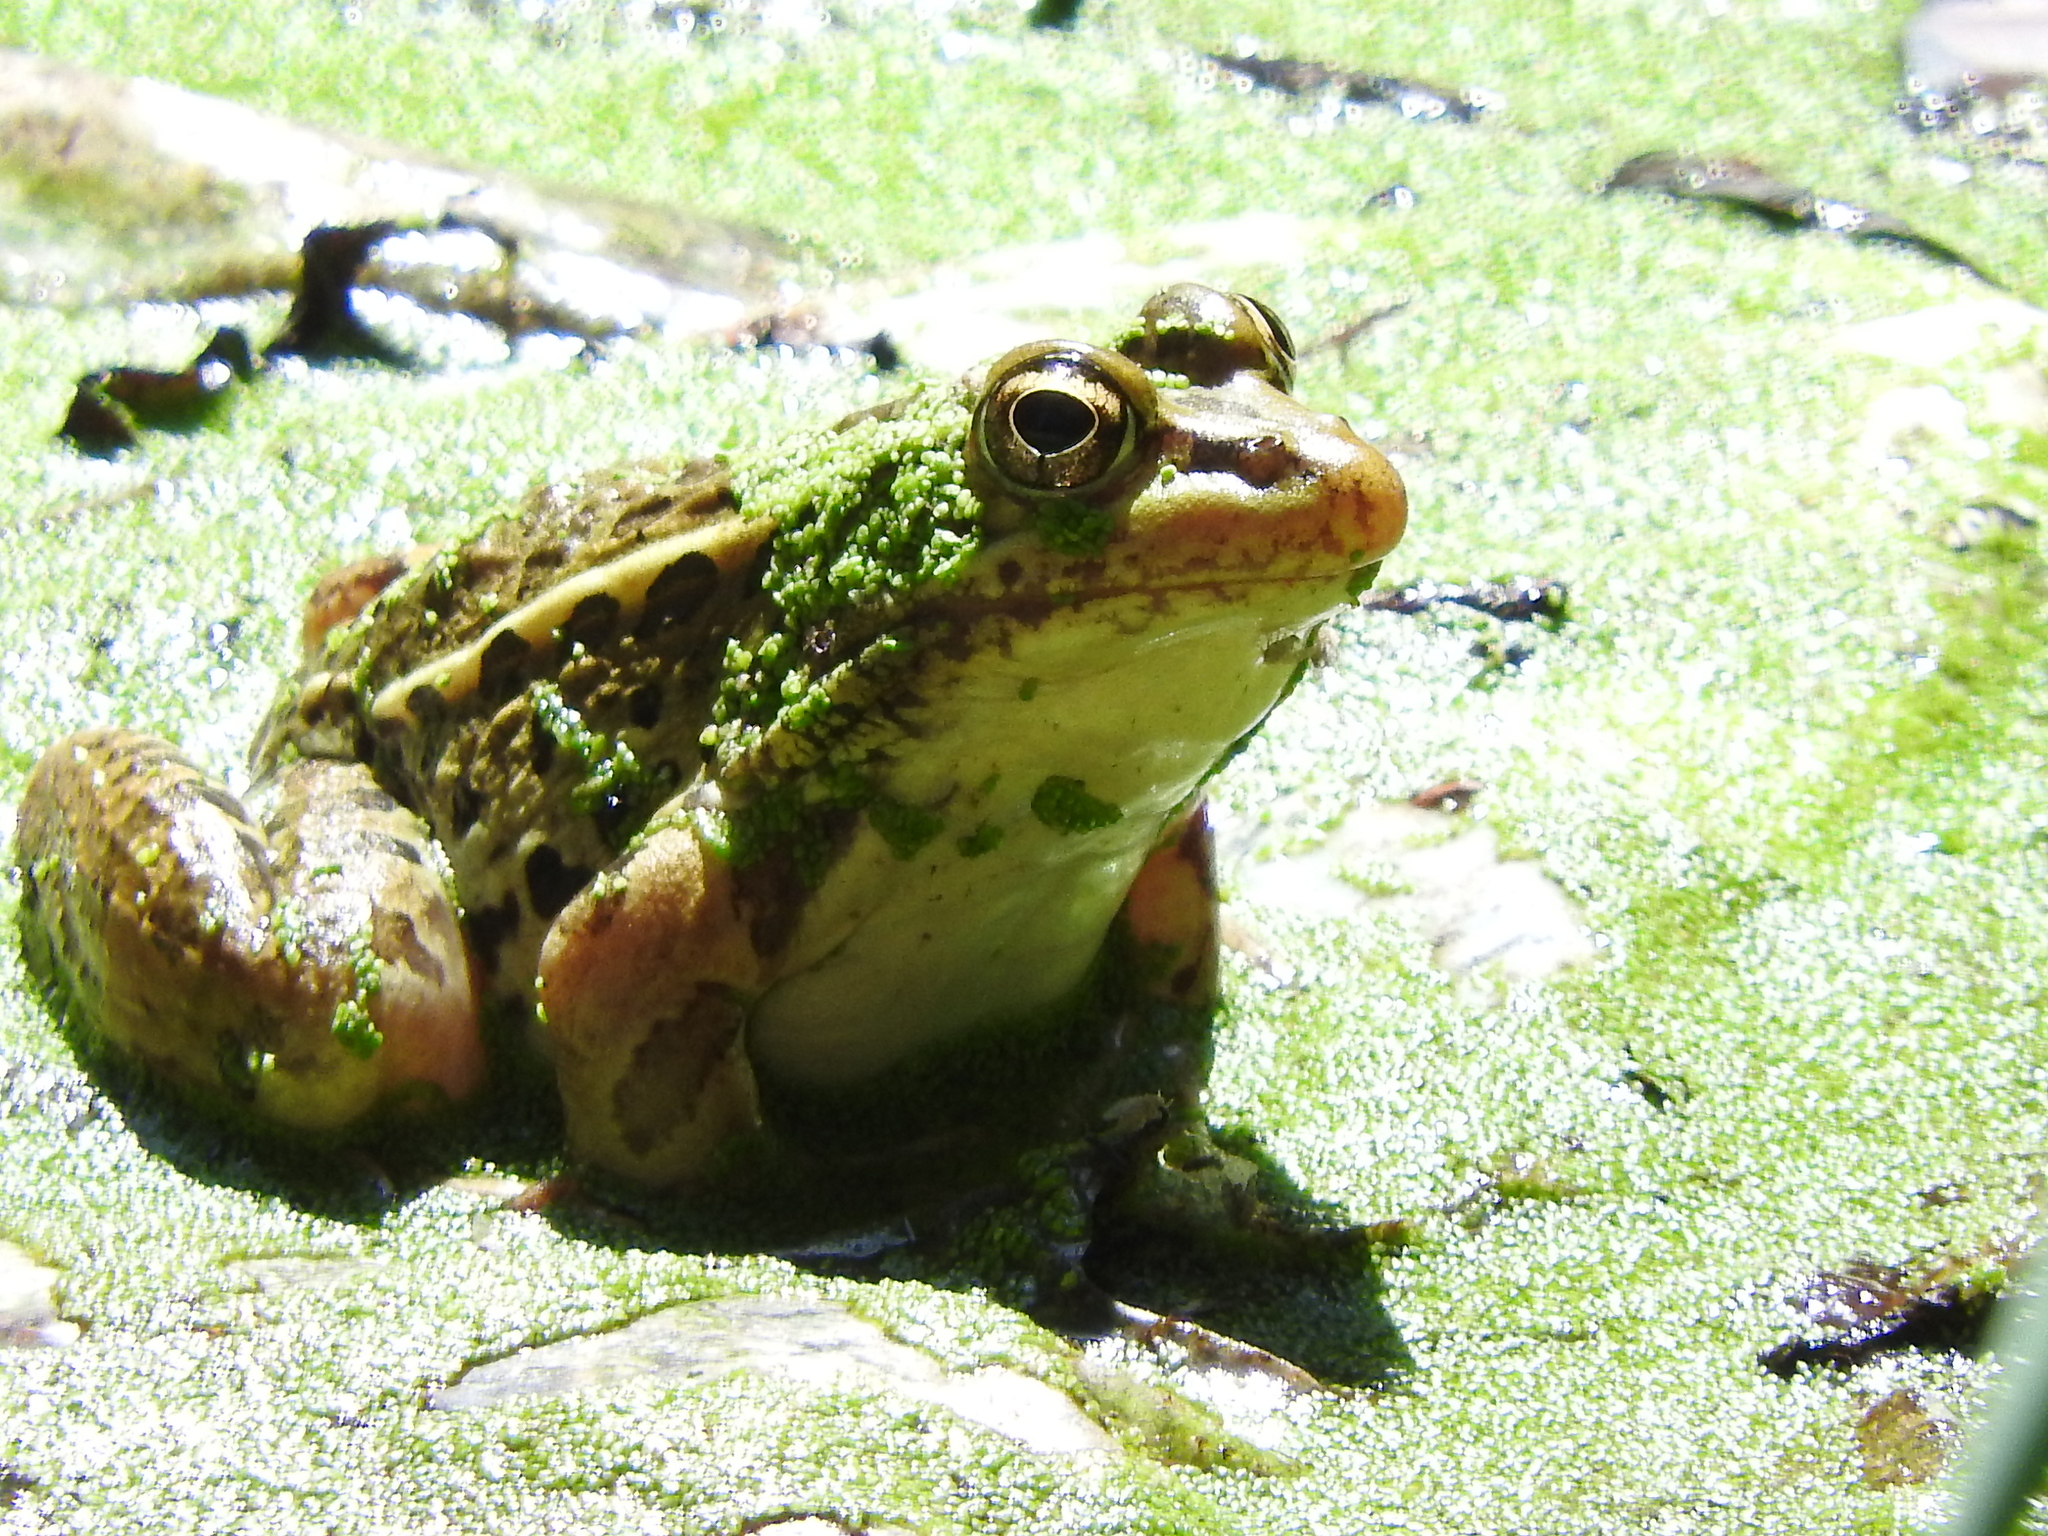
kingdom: Animalia
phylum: Chordata
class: Amphibia
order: Anura
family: Ranidae
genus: Lithobates
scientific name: Lithobates montezumae
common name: Montezuma leopard frog
